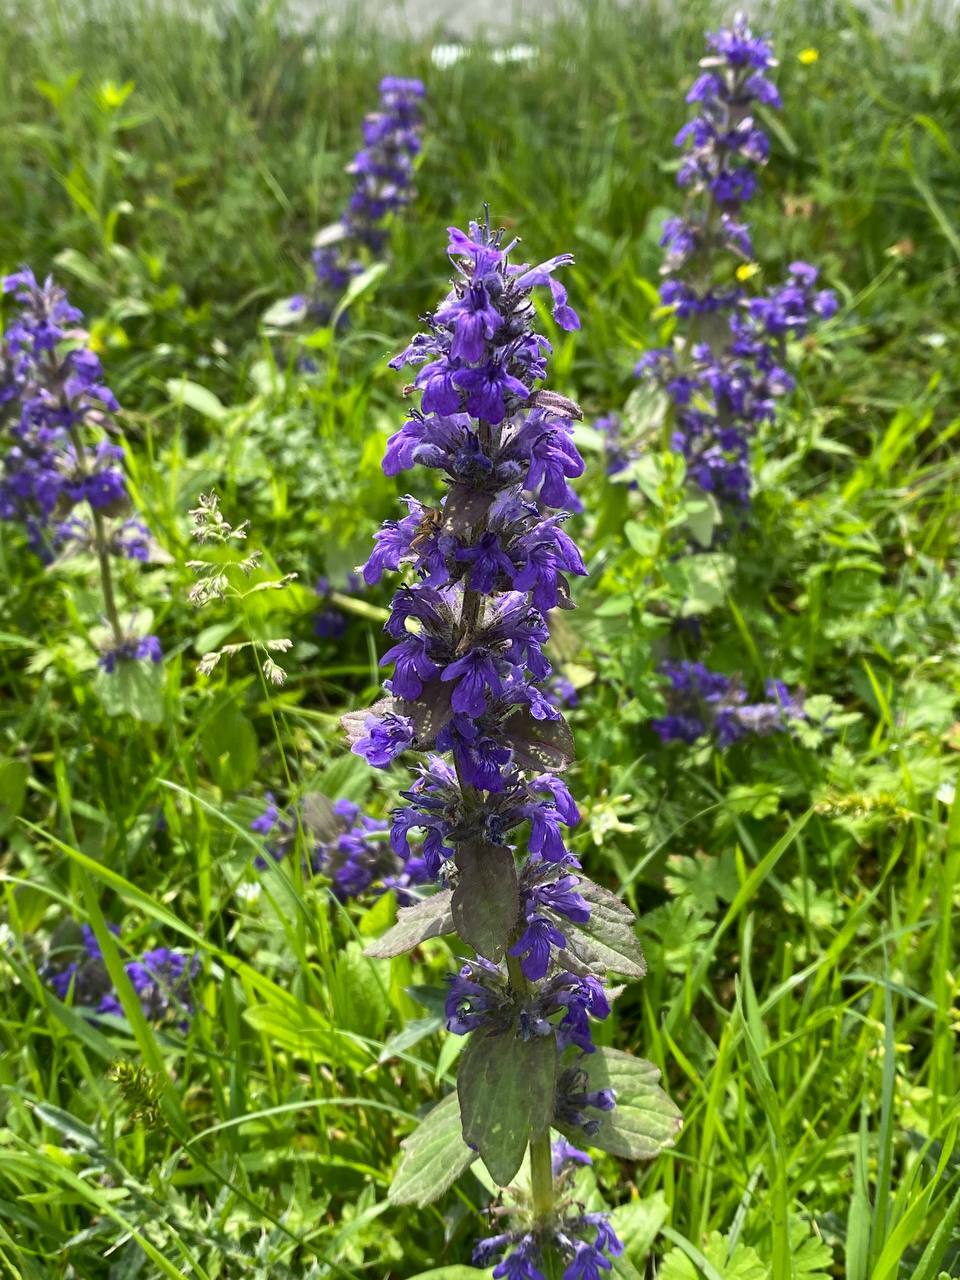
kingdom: Plantae
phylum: Tracheophyta
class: Magnoliopsida
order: Lamiales
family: Lamiaceae
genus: Ajuga
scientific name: Ajuga genevensis
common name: Blue bugle
